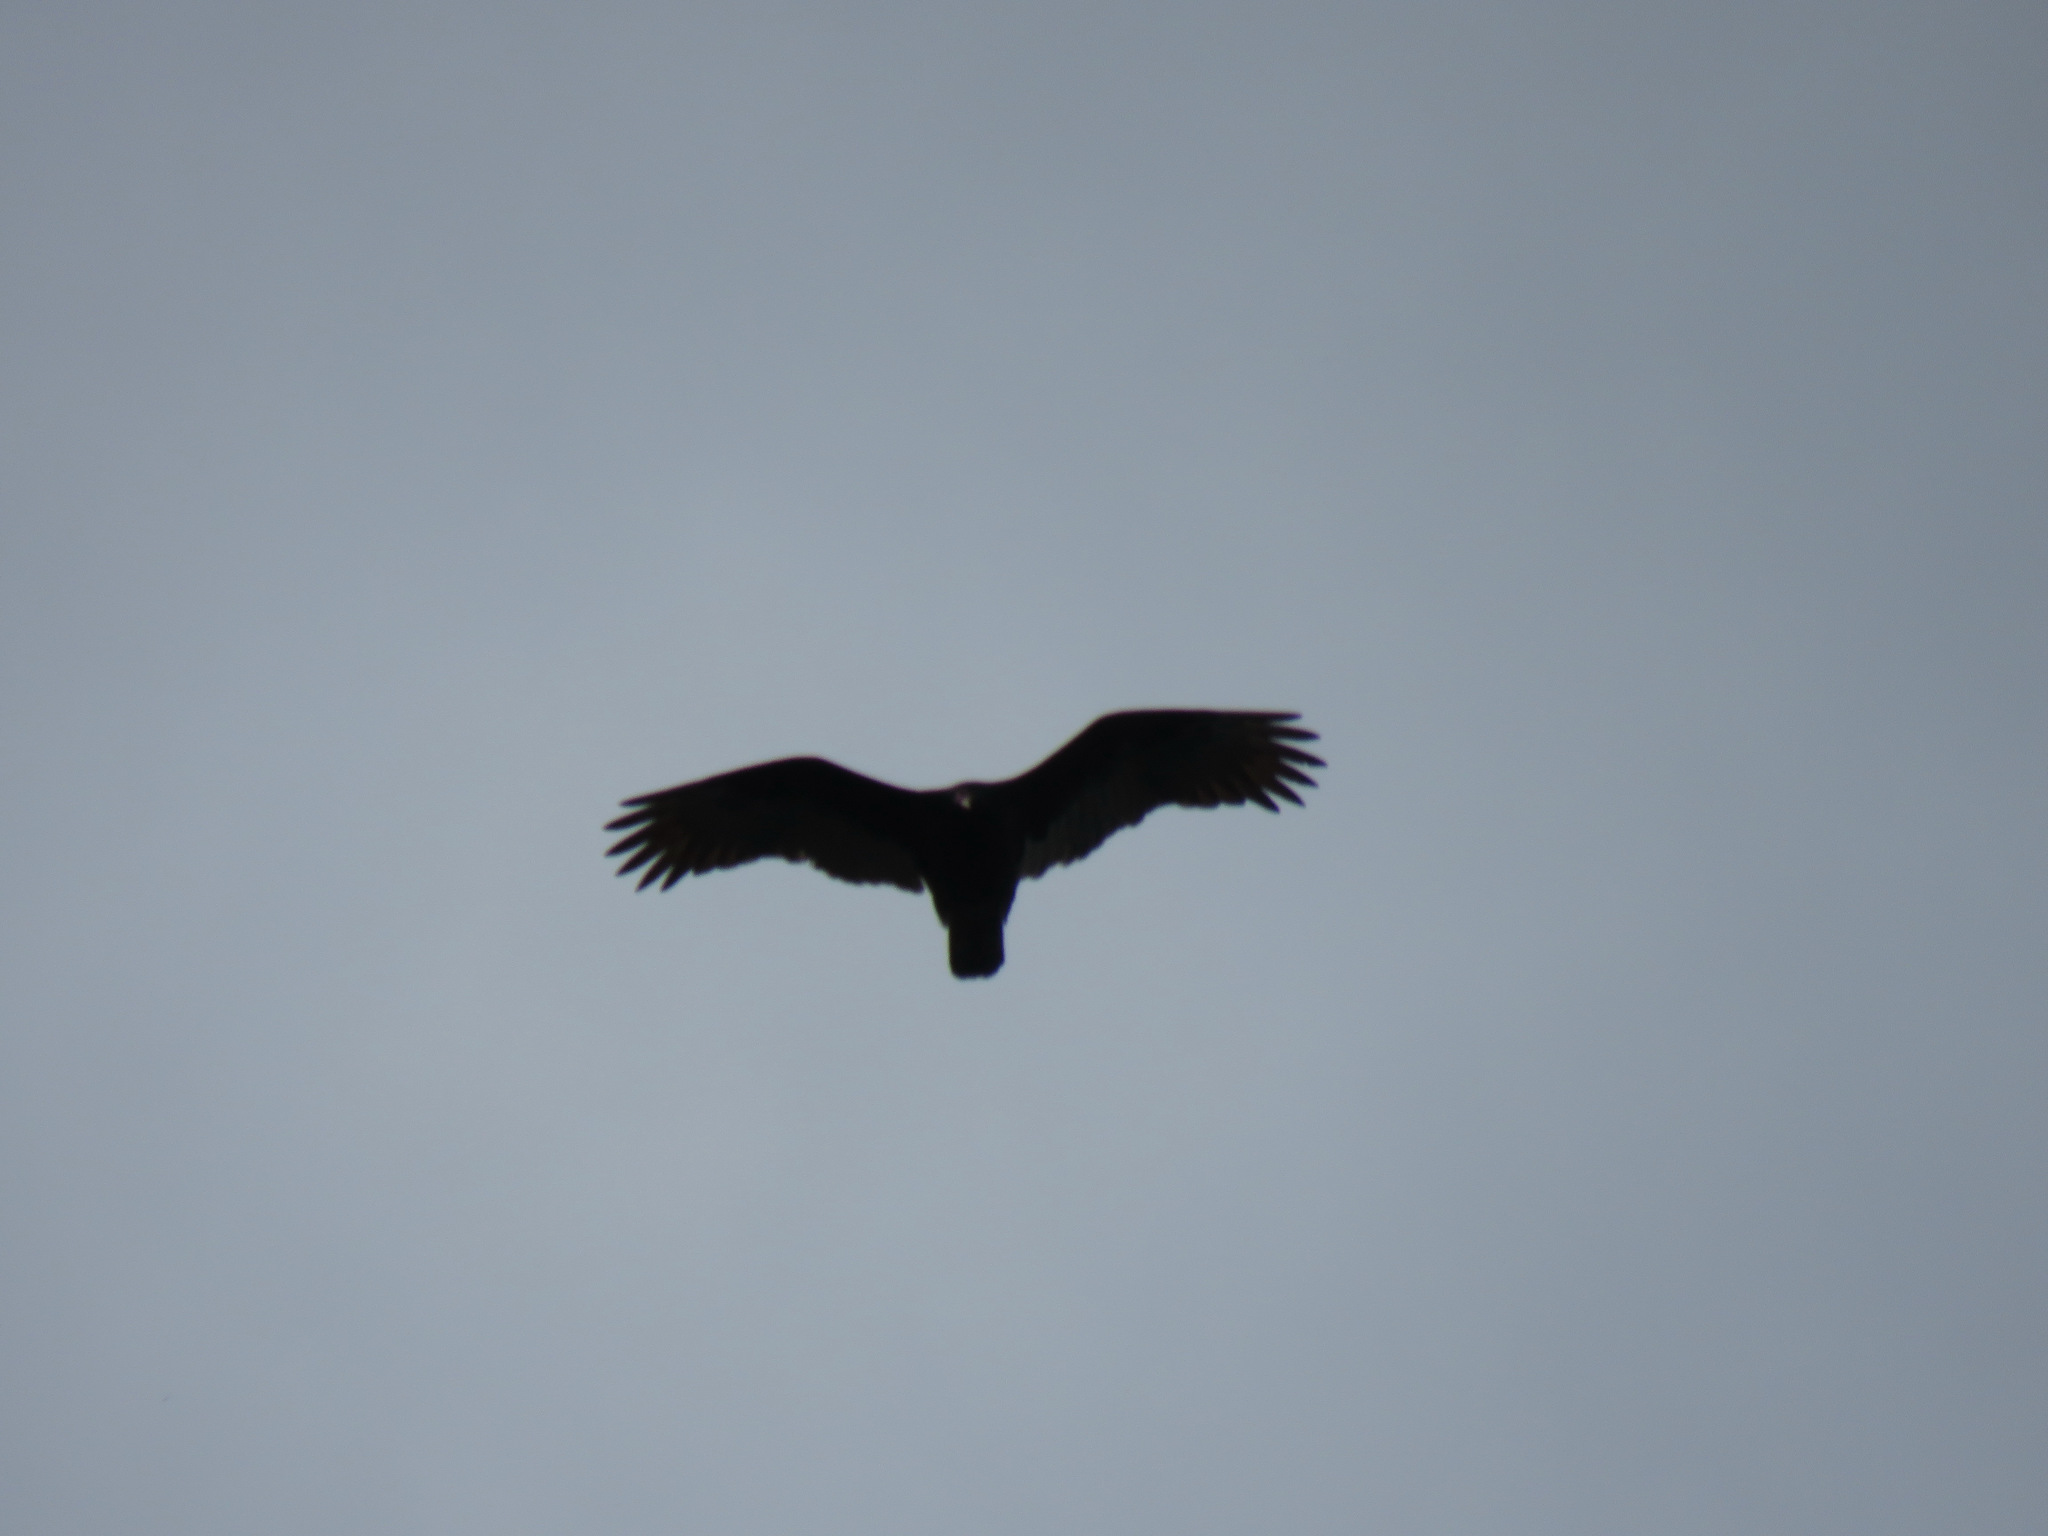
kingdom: Animalia
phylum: Chordata
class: Aves
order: Accipitriformes
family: Cathartidae
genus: Cathartes
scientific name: Cathartes aura
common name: Turkey vulture
